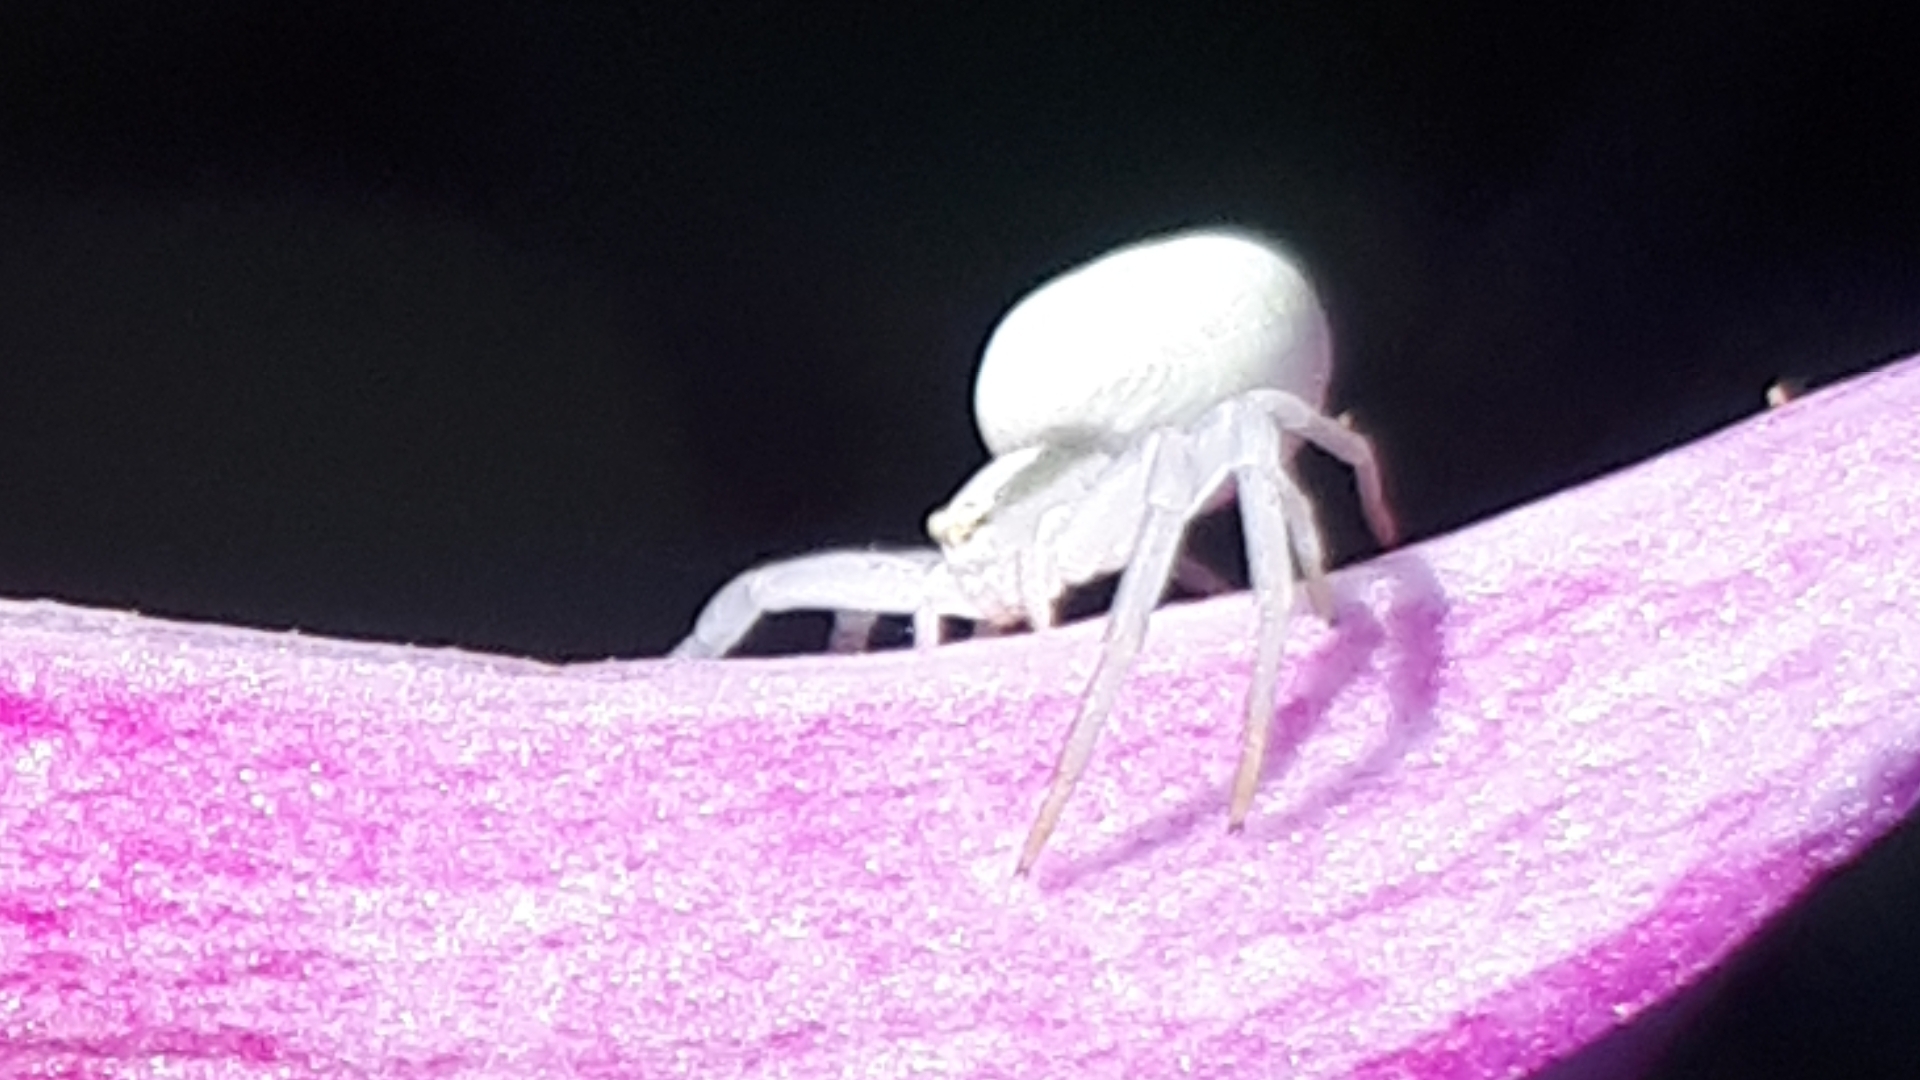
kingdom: Animalia
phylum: Arthropoda
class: Arachnida
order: Araneae
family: Thomisidae
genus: Misumena
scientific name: Misumena vatia
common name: Goldenrod crab spider
